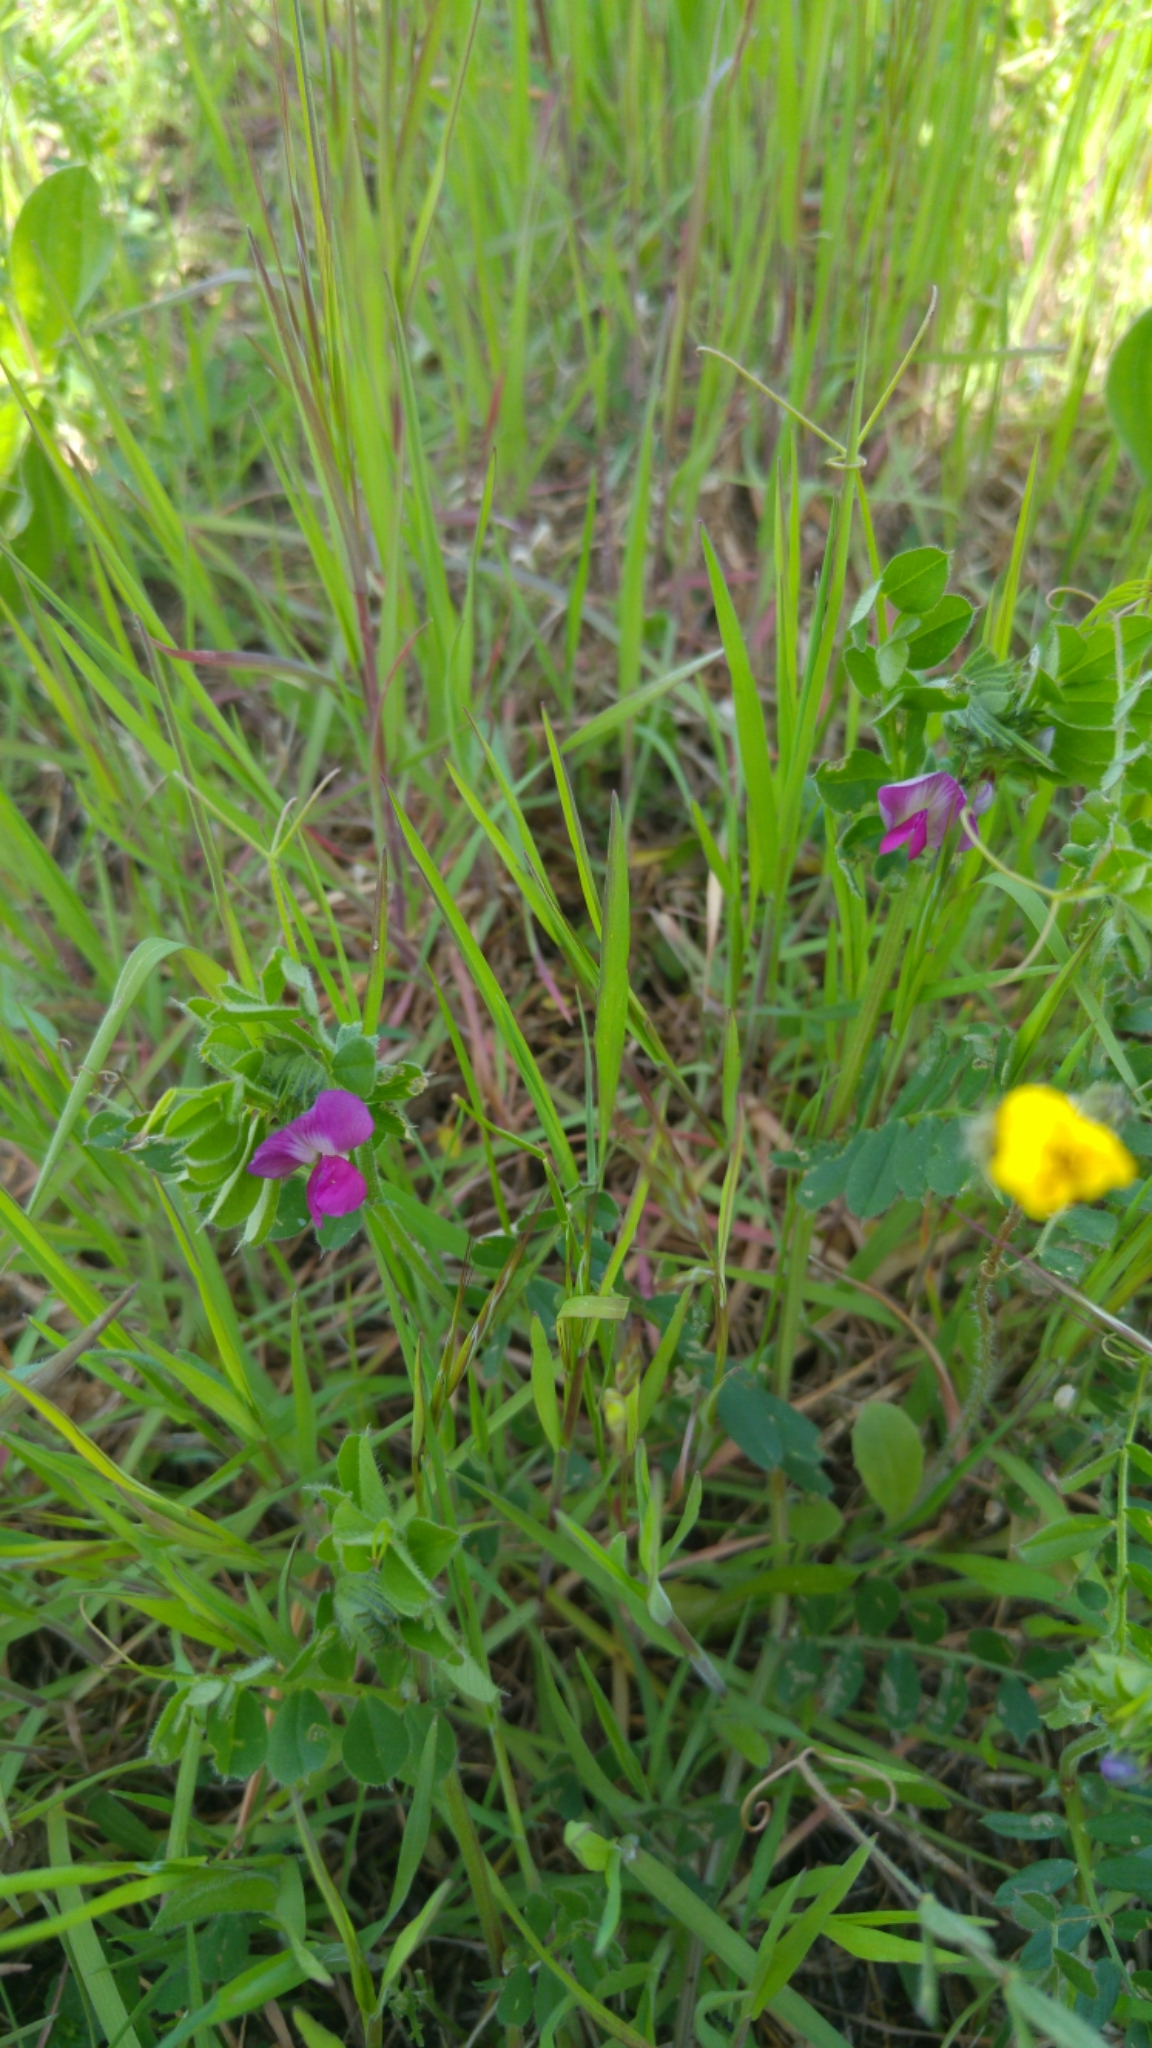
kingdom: Plantae
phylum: Tracheophyta
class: Magnoliopsida
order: Fabales
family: Fabaceae
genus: Vicia
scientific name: Vicia sativa
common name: Garden vetch
